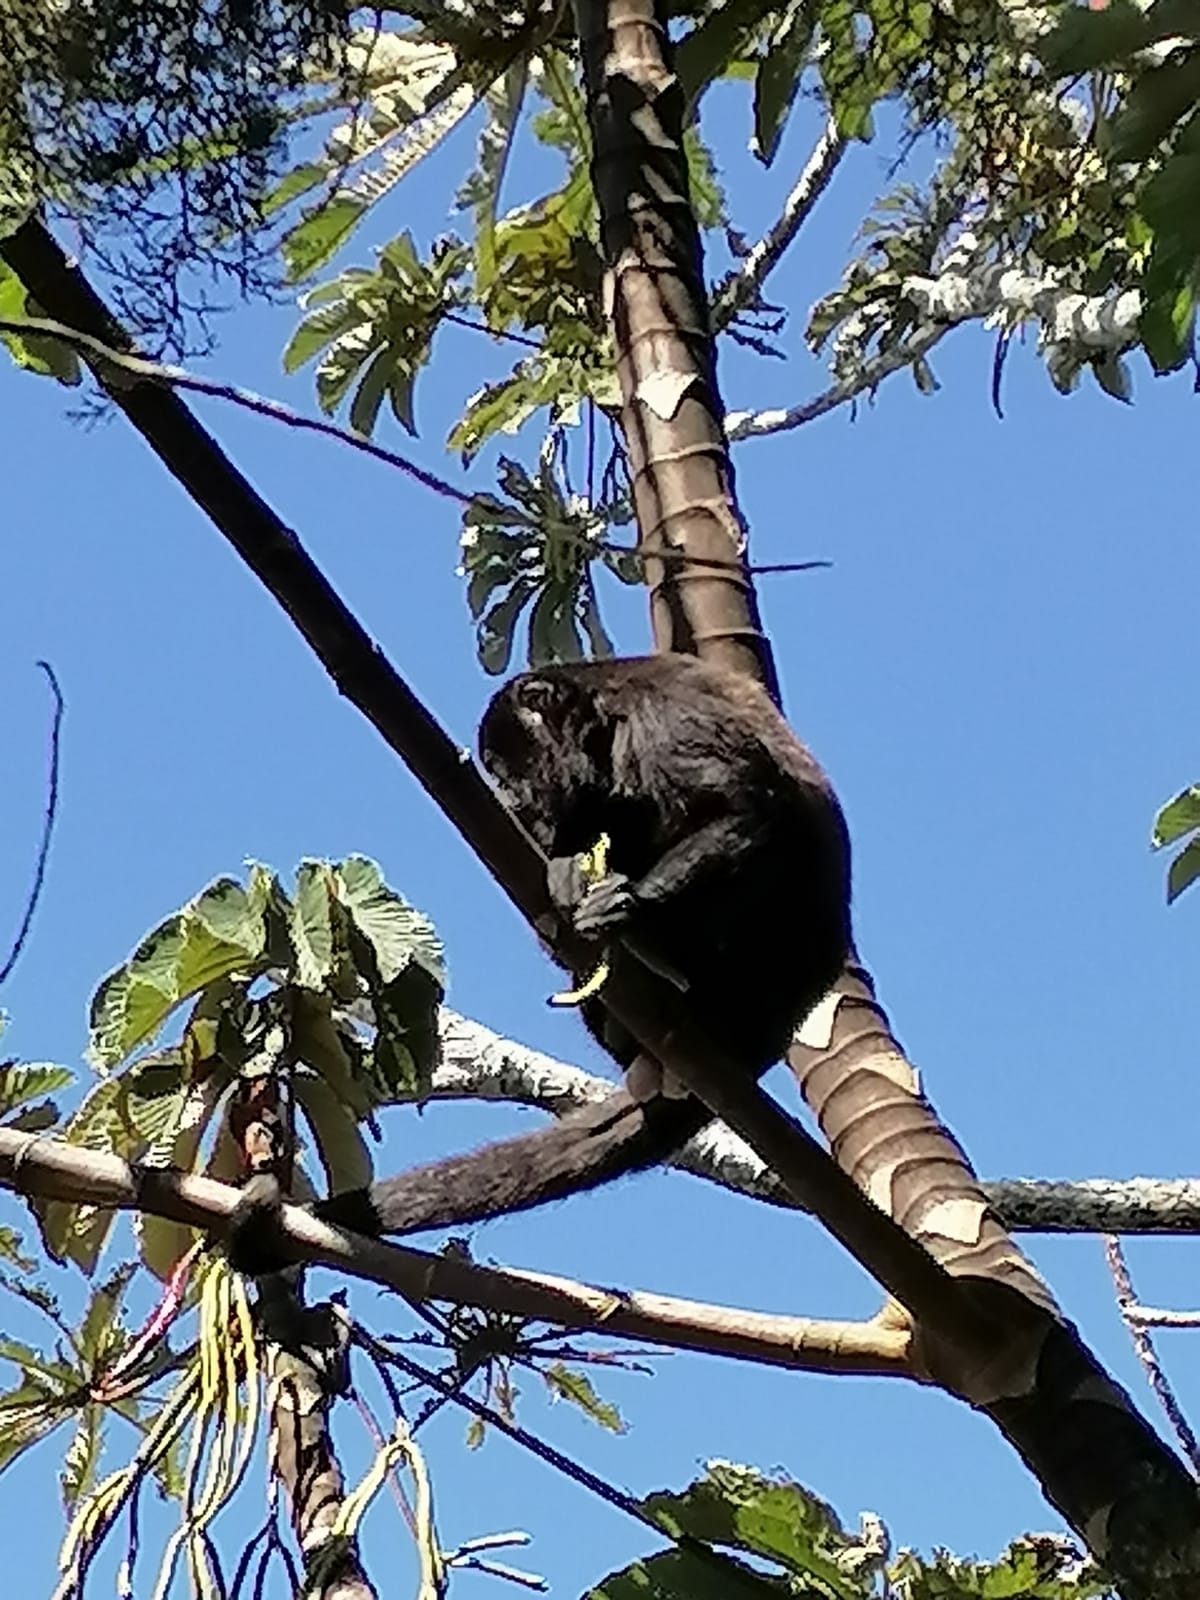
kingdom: Animalia
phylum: Chordata
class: Mammalia
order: Primates
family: Atelidae
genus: Alouatta
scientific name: Alouatta palliata
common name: Mantled howler
